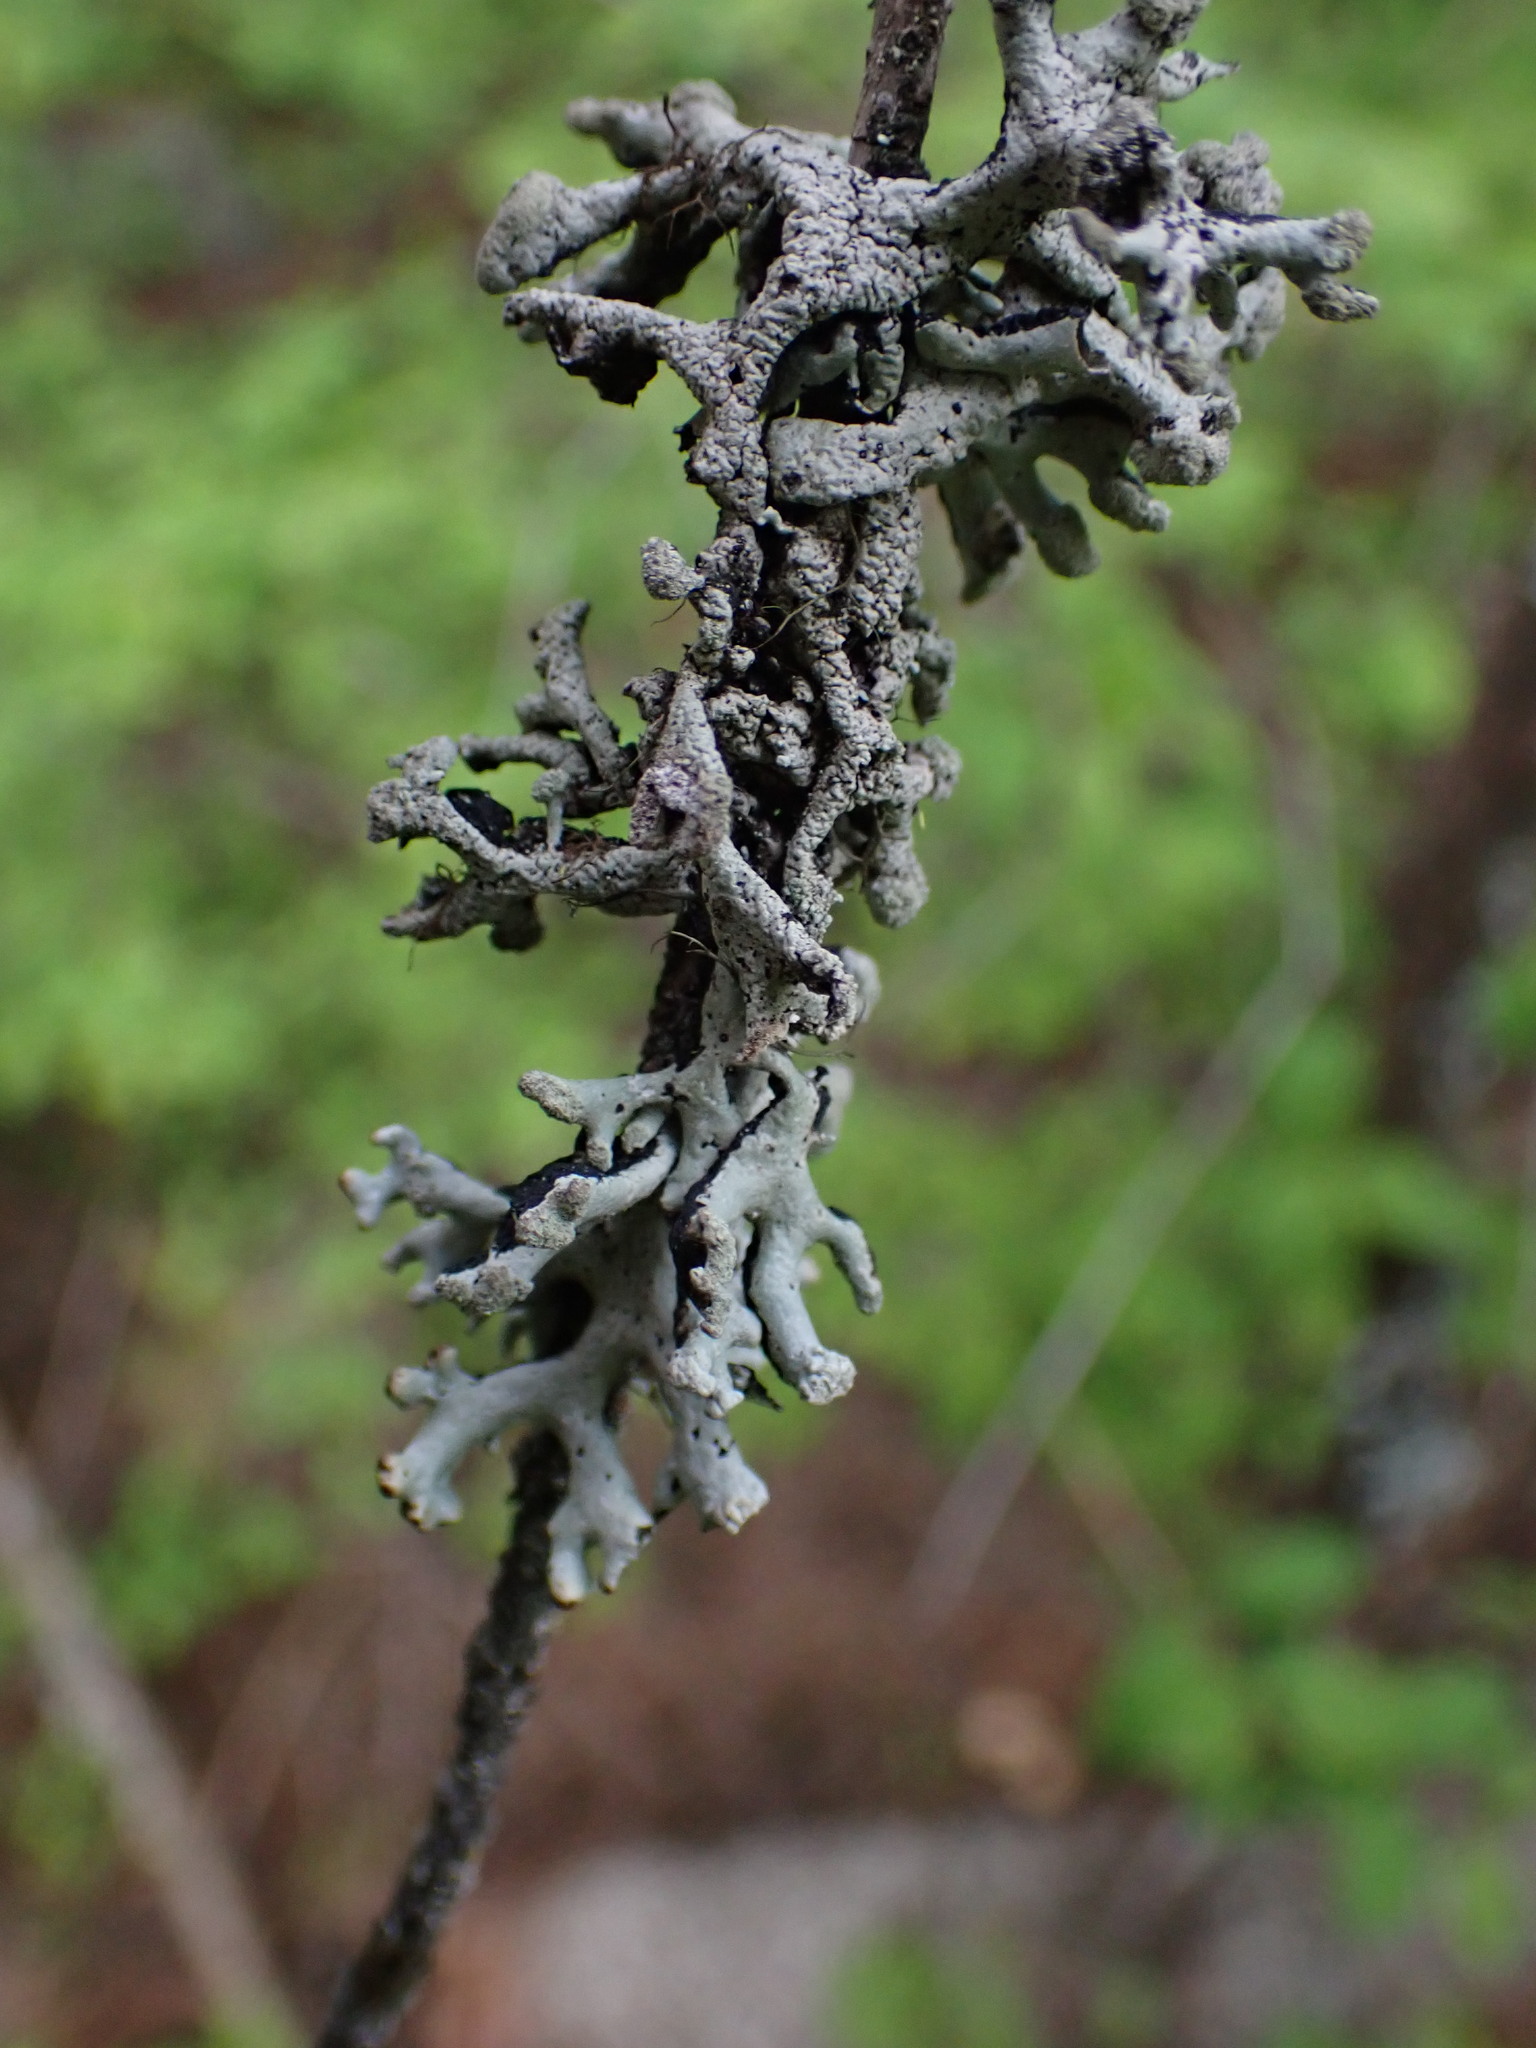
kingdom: Fungi
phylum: Ascomycota
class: Lecanoromycetes
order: Lecanorales
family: Parmeliaceae
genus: Hypogymnia
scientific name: Hypogymnia tubulosa
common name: Powder-headed tube lichen
